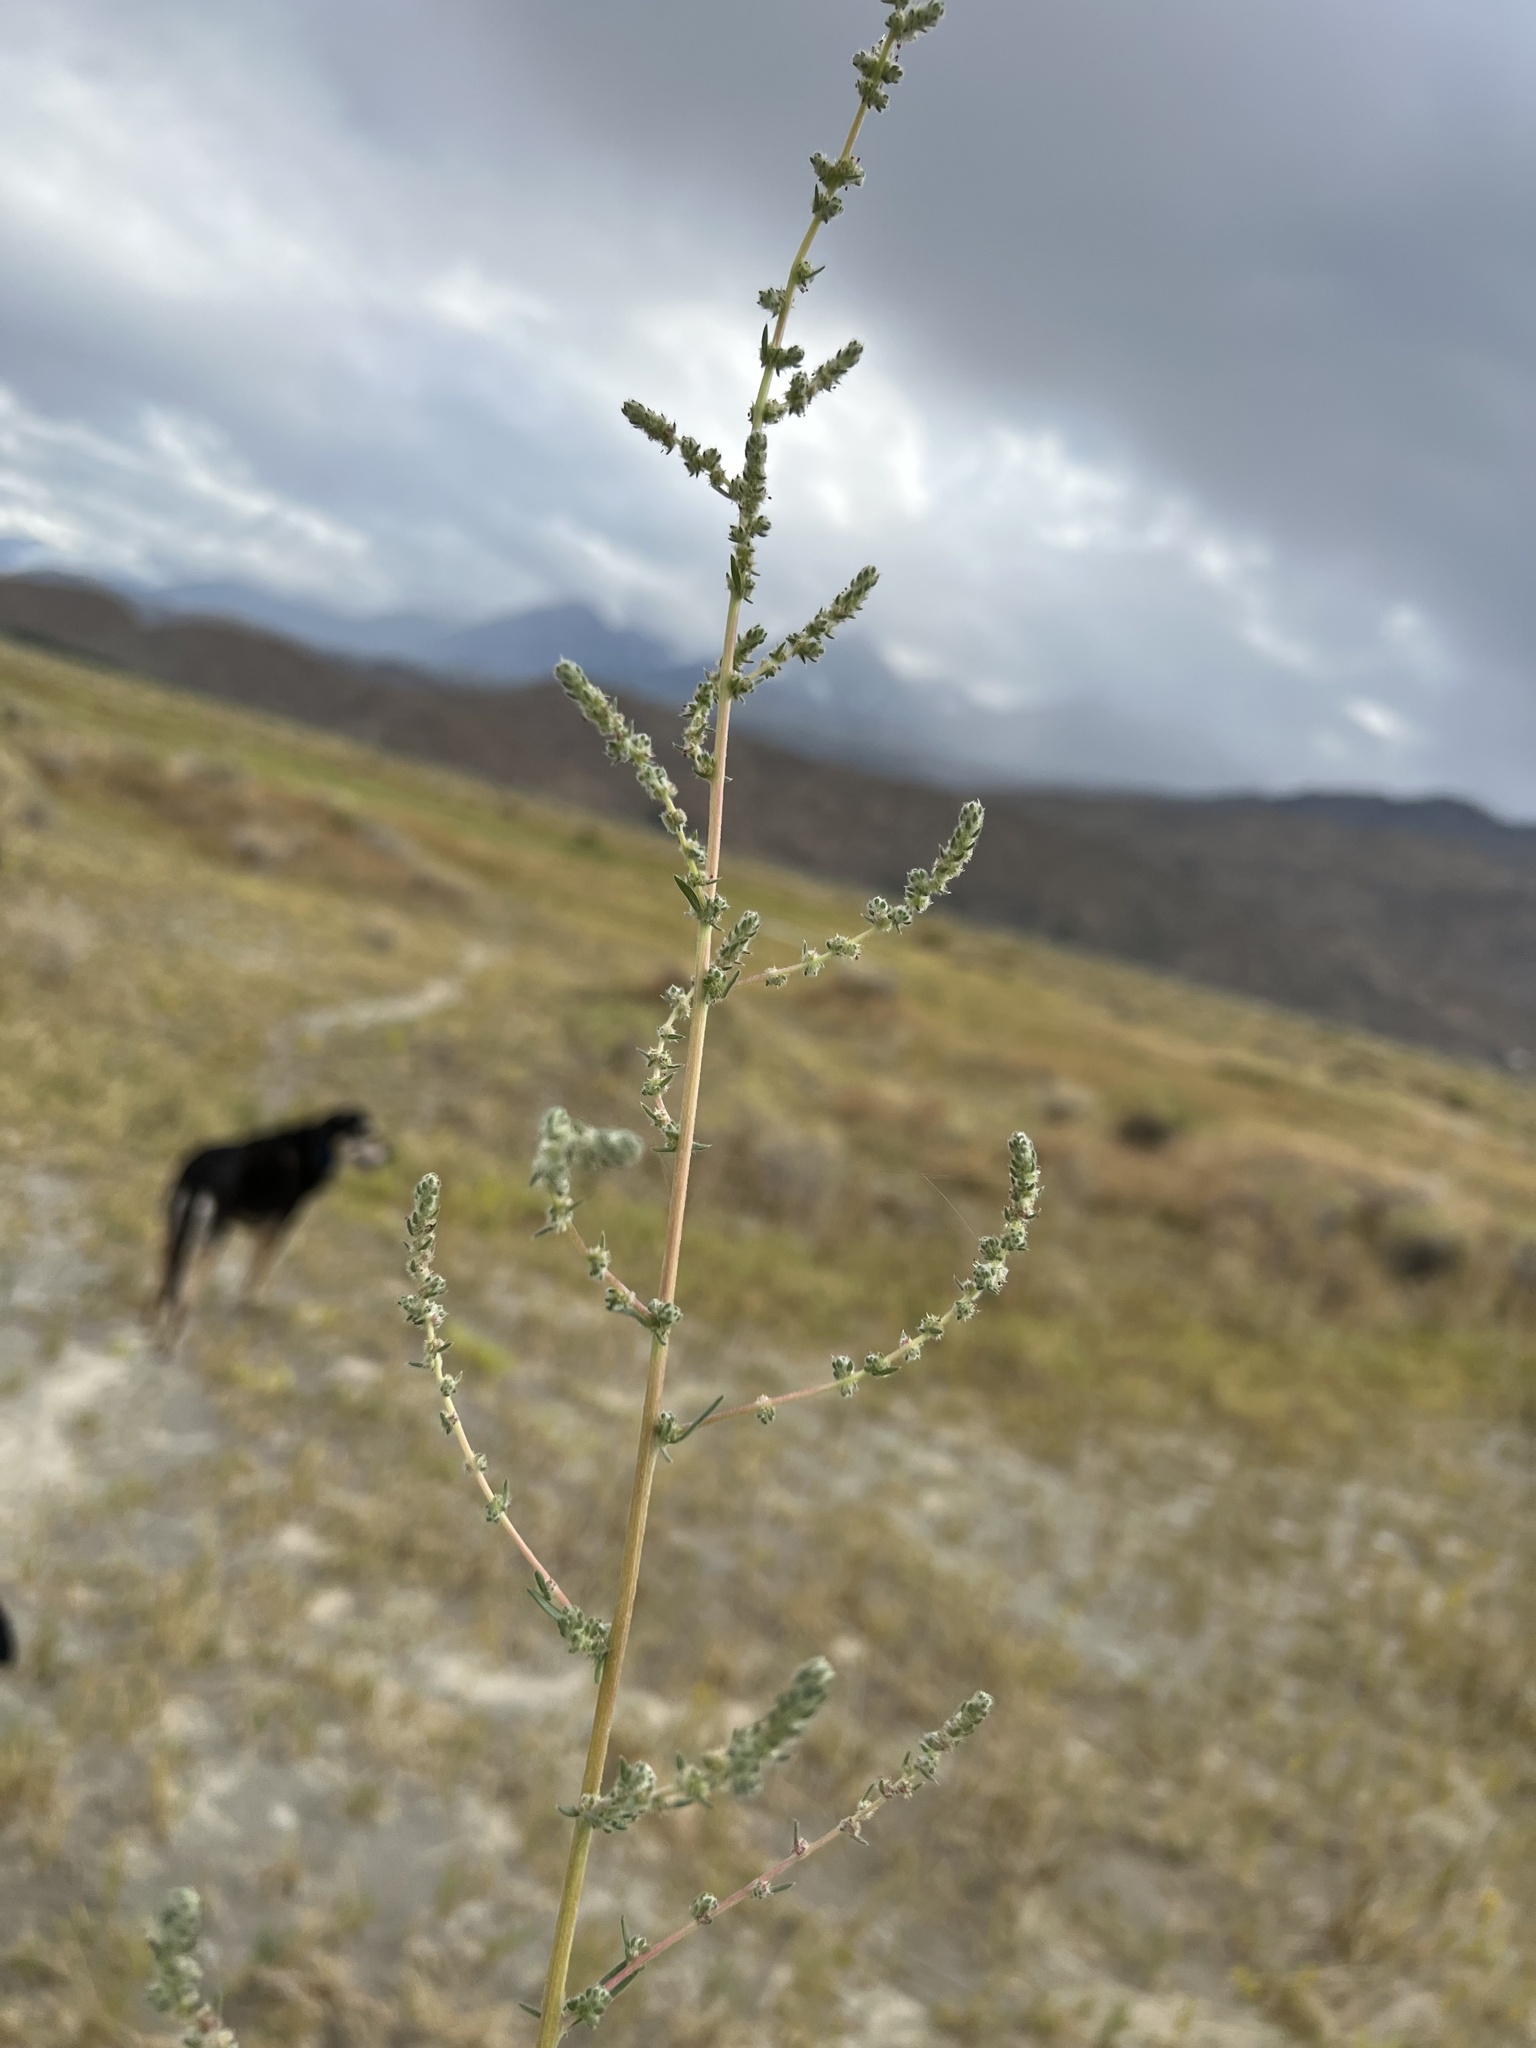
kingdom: Plantae
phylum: Tracheophyta
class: Magnoliopsida
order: Caryophyllales
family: Amaranthaceae
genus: Bassia
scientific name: Bassia hyssopifolia
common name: Fivehorn smotherweed
